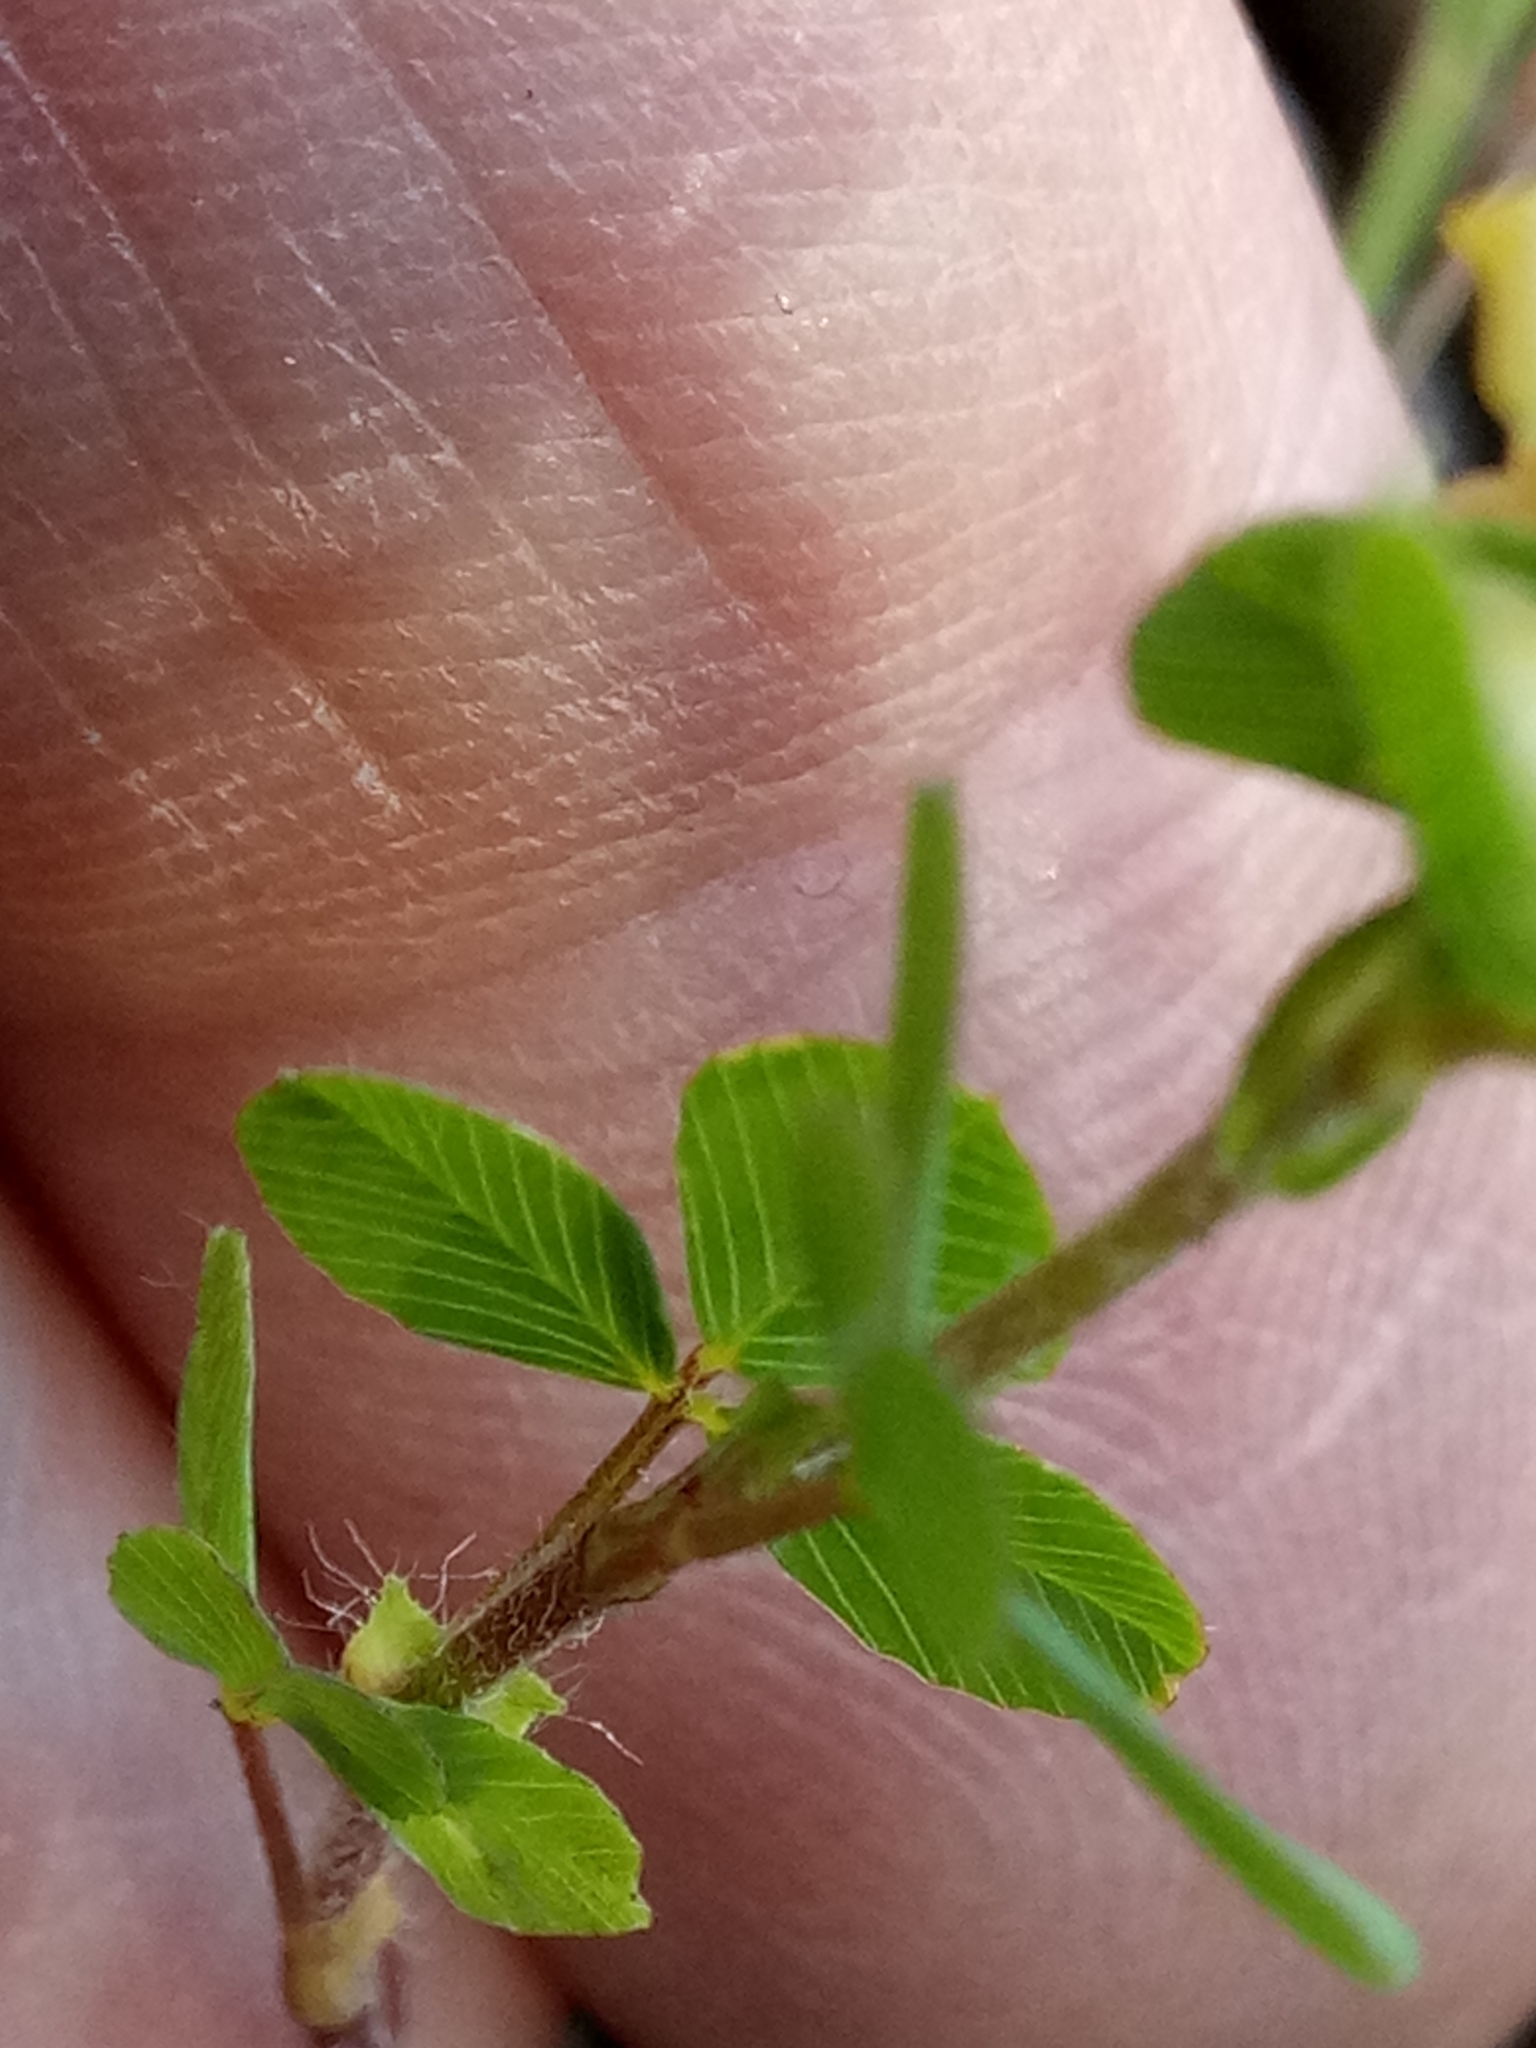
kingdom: Plantae
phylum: Tracheophyta
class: Magnoliopsida
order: Fabales
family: Fabaceae
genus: Trifolium
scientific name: Trifolium campestre
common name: Field clover
